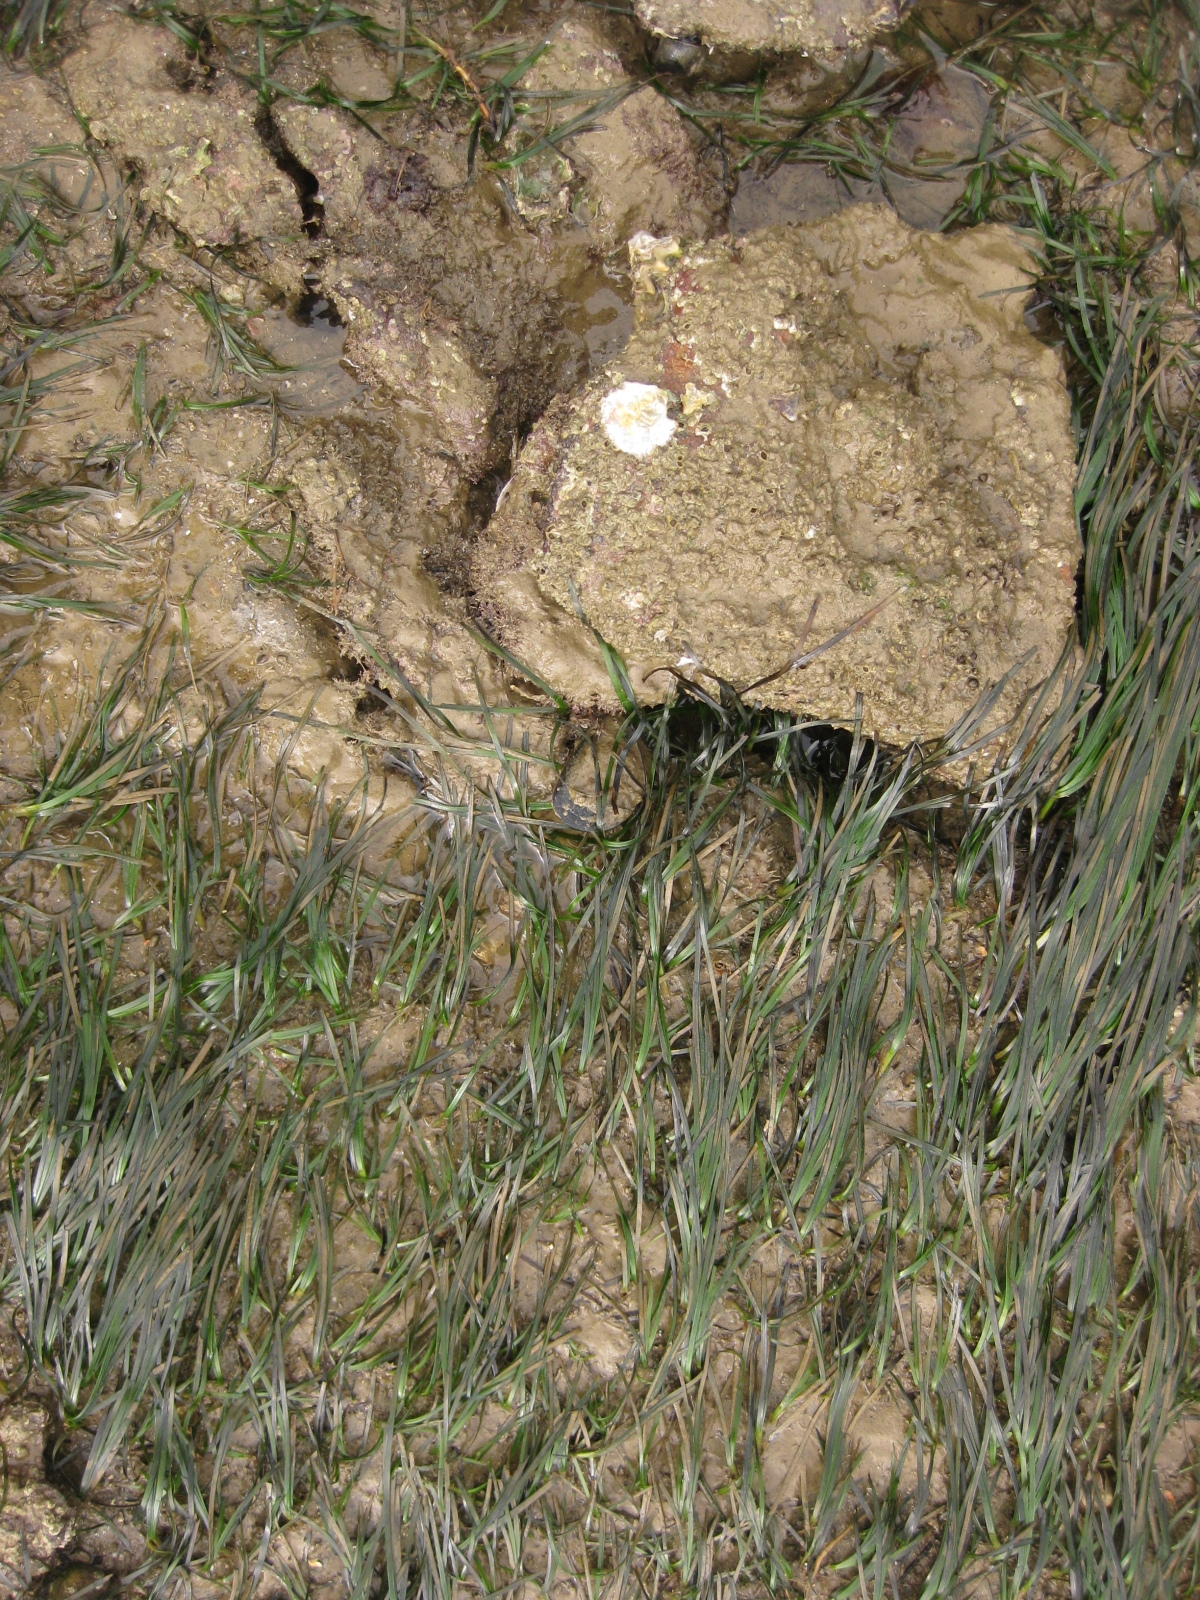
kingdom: Animalia
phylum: Mollusca
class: Gastropoda
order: Littorinimorpha
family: Cymatiidae
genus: Monoplex
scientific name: Monoplex parthenopeus
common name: Giant triton
